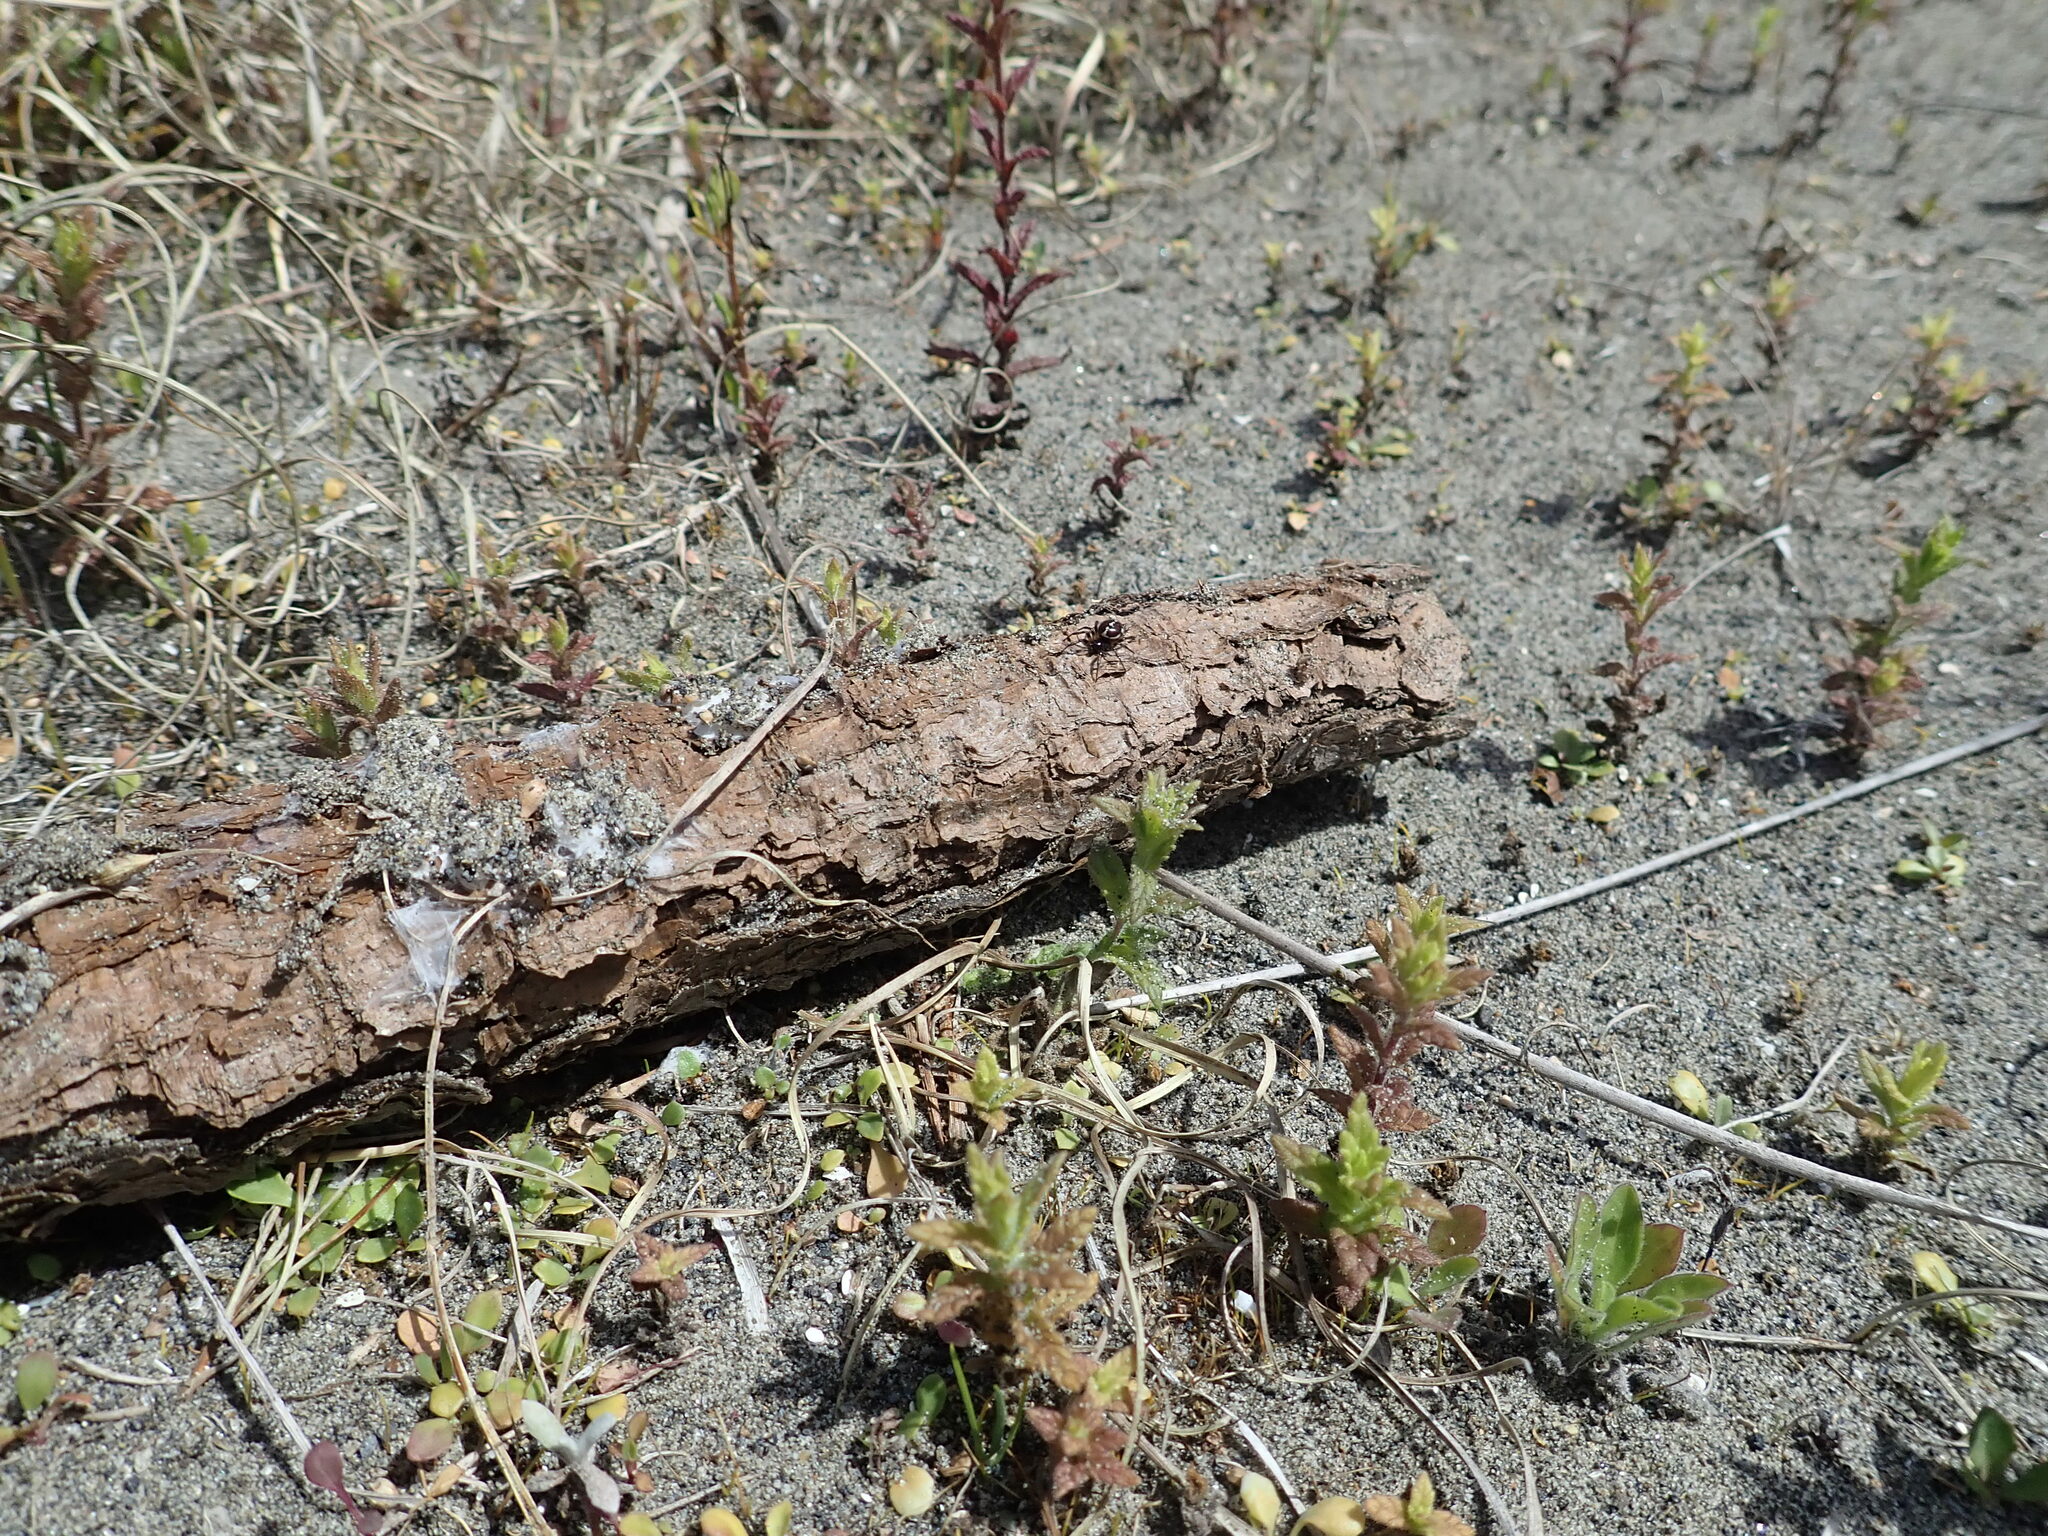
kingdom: Animalia
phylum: Arthropoda
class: Arachnida
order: Araneae
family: Theridiidae
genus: Steatoda
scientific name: Steatoda lepida
